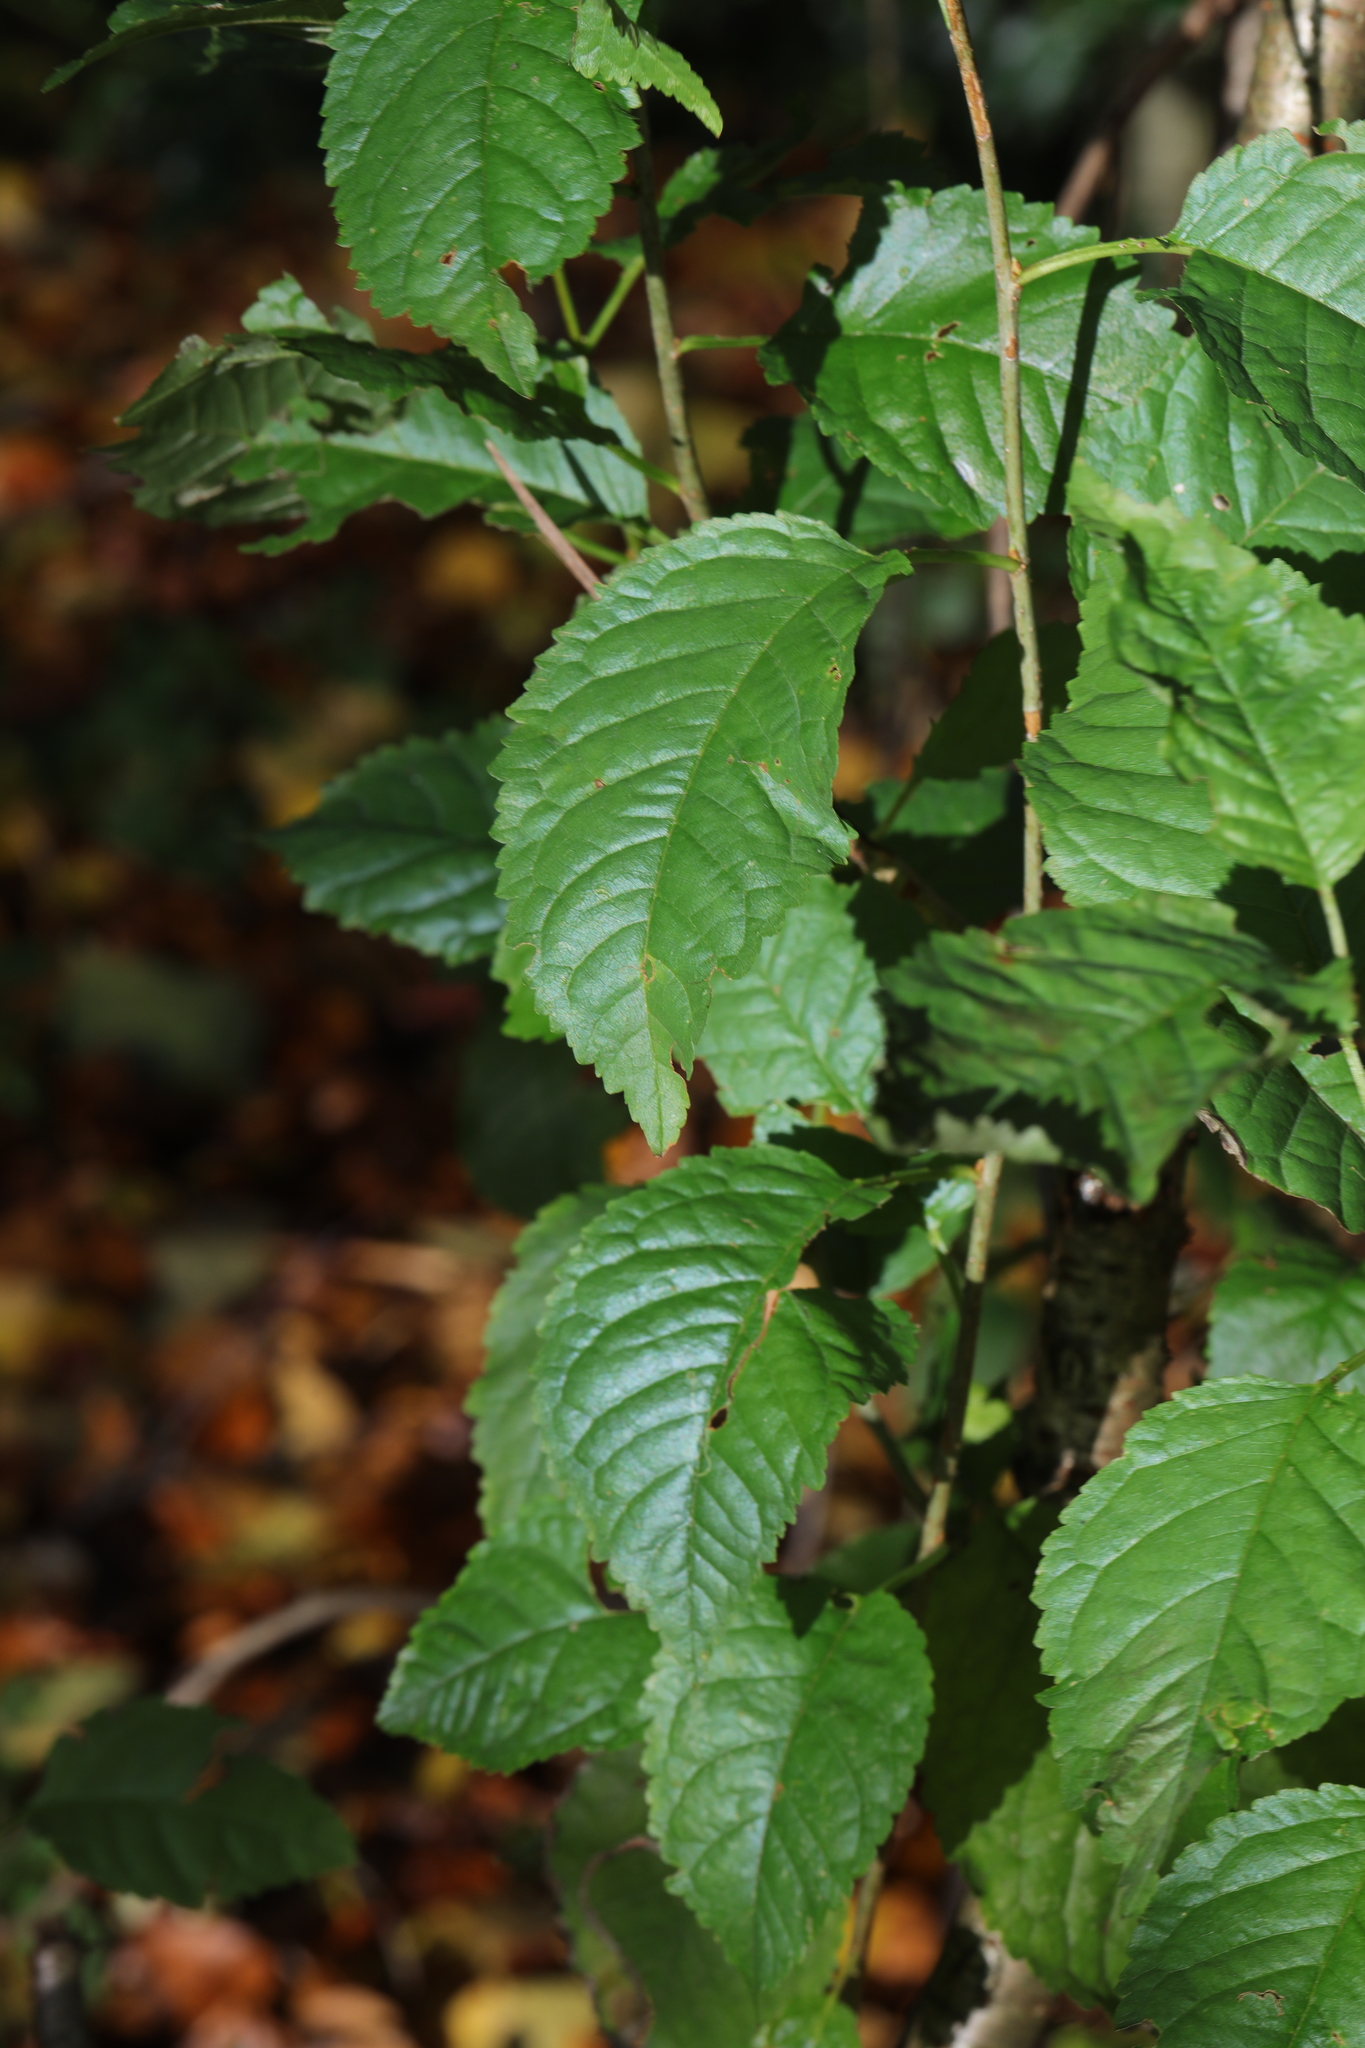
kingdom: Plantae
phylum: Tracheophyta
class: Magnoliopsida
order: Rosales
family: Rosaceae
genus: Prunus
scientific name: Prunus avium
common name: Sweet cherry
